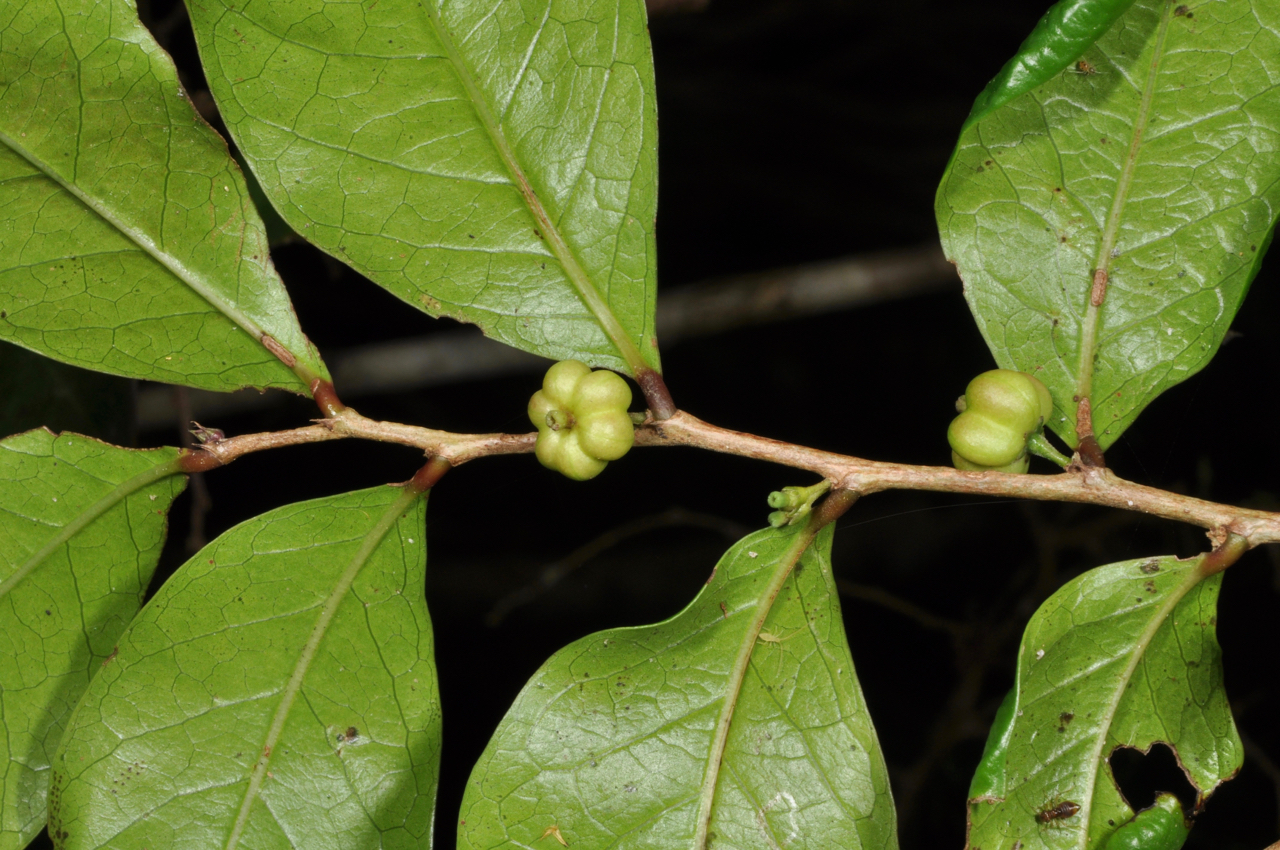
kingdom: Plantae
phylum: Tracheophyta
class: Magnoliopsida
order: Malpighiales
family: Phyllanthaceae
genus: Glochidion
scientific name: Glochidion rubrum
